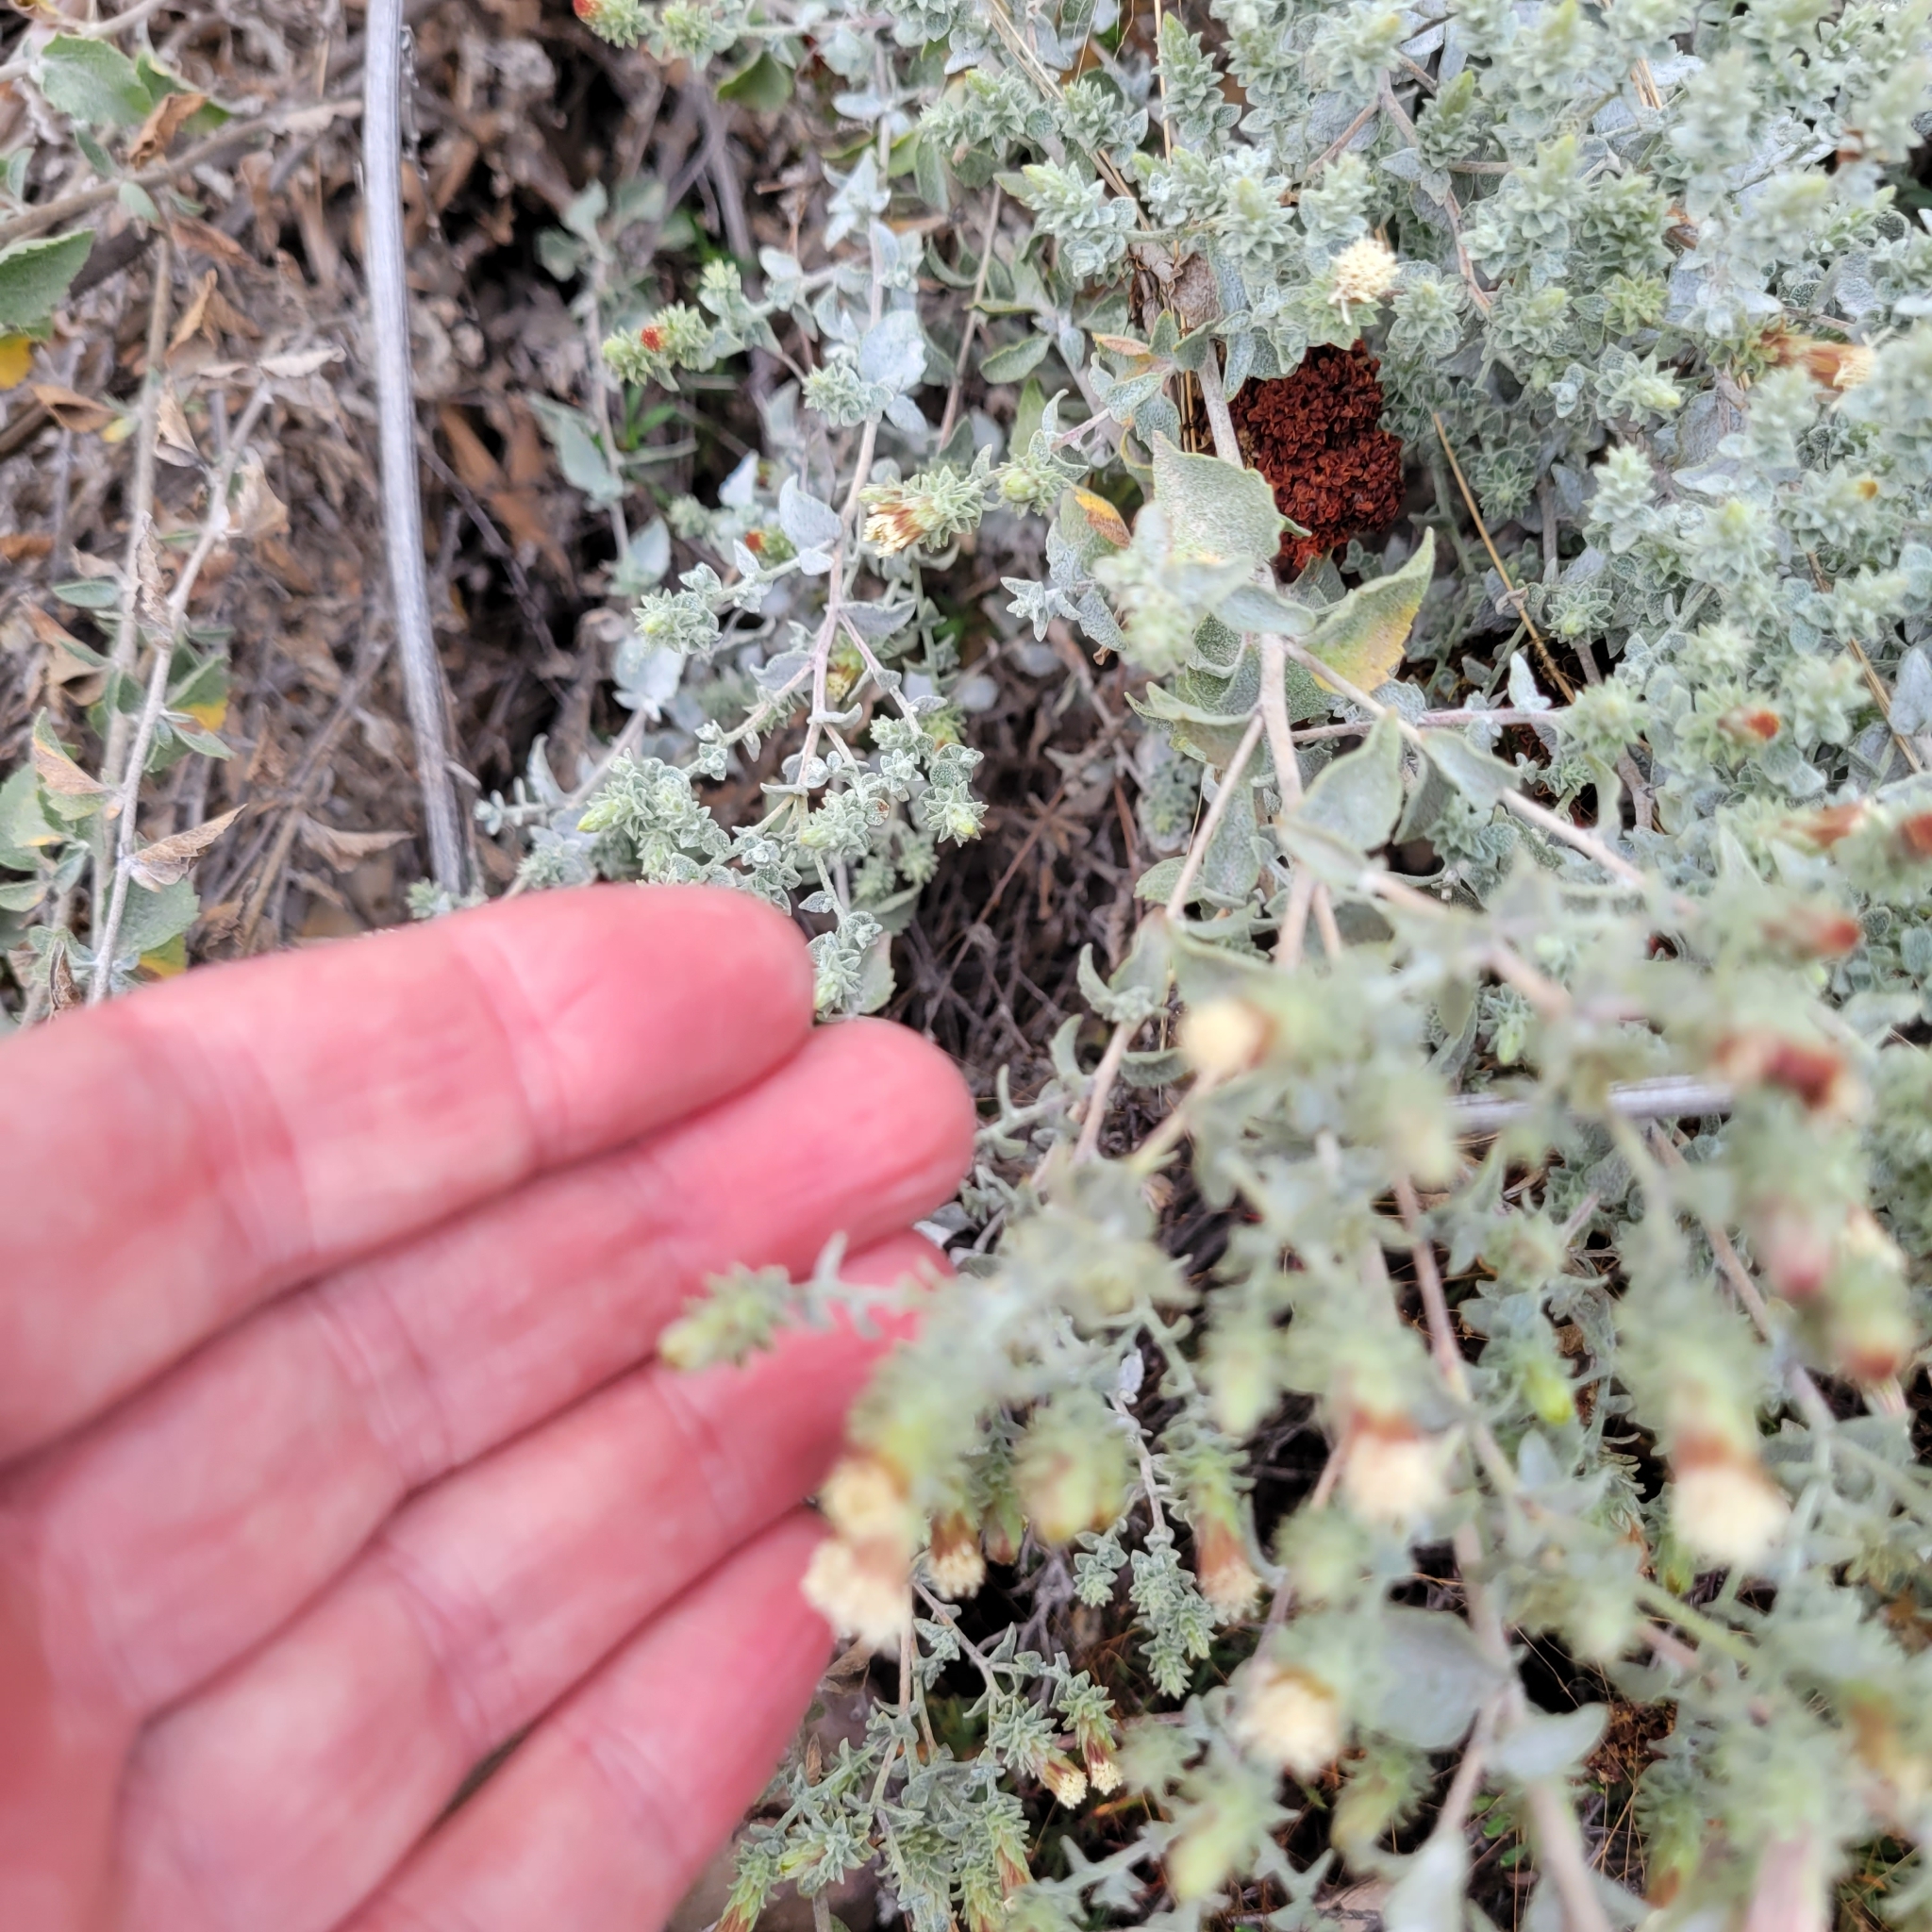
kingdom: Plantae
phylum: Tracheophyta
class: Magnoliopsida
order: Asterales
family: Asteraceae
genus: Brickellia
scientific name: Brickellia nevinii
